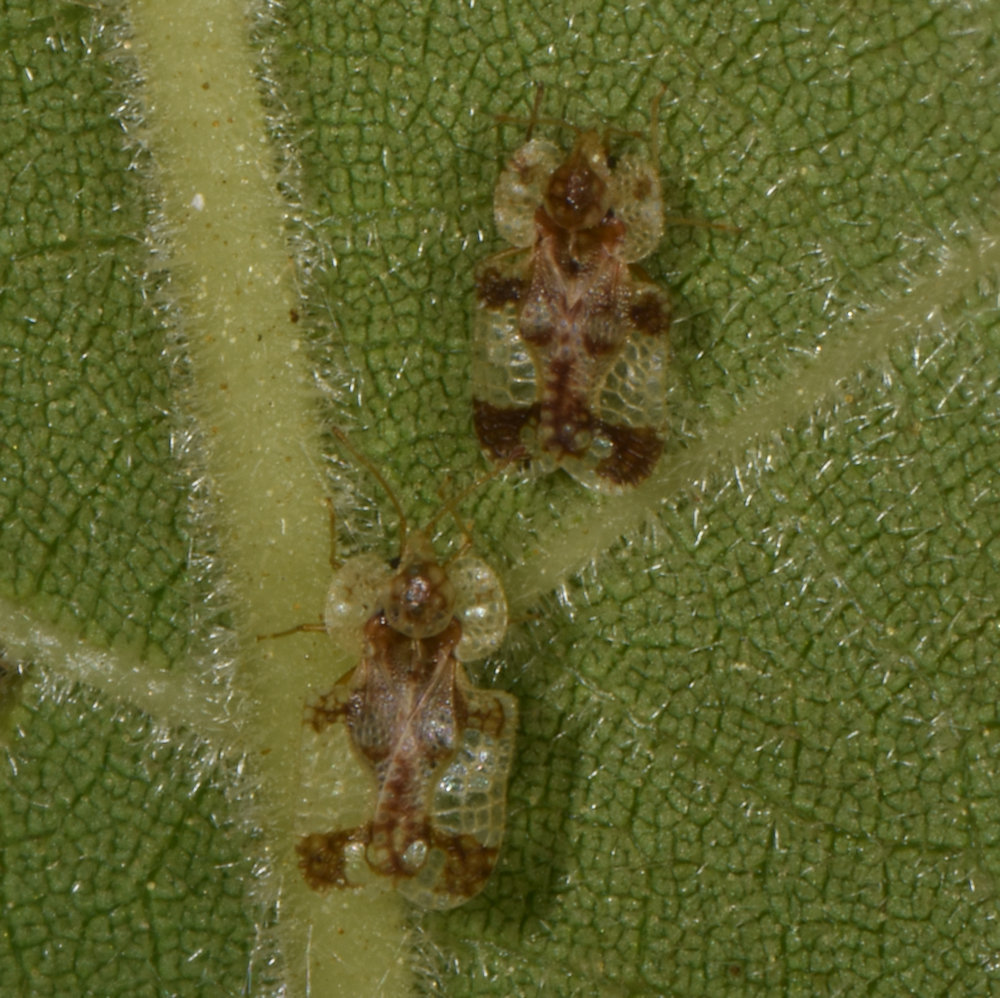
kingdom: Animalia
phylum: Arthropoda
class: Insecta
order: Hemiptera
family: Tingidae
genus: Corythucha
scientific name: Corythucha juglandis
